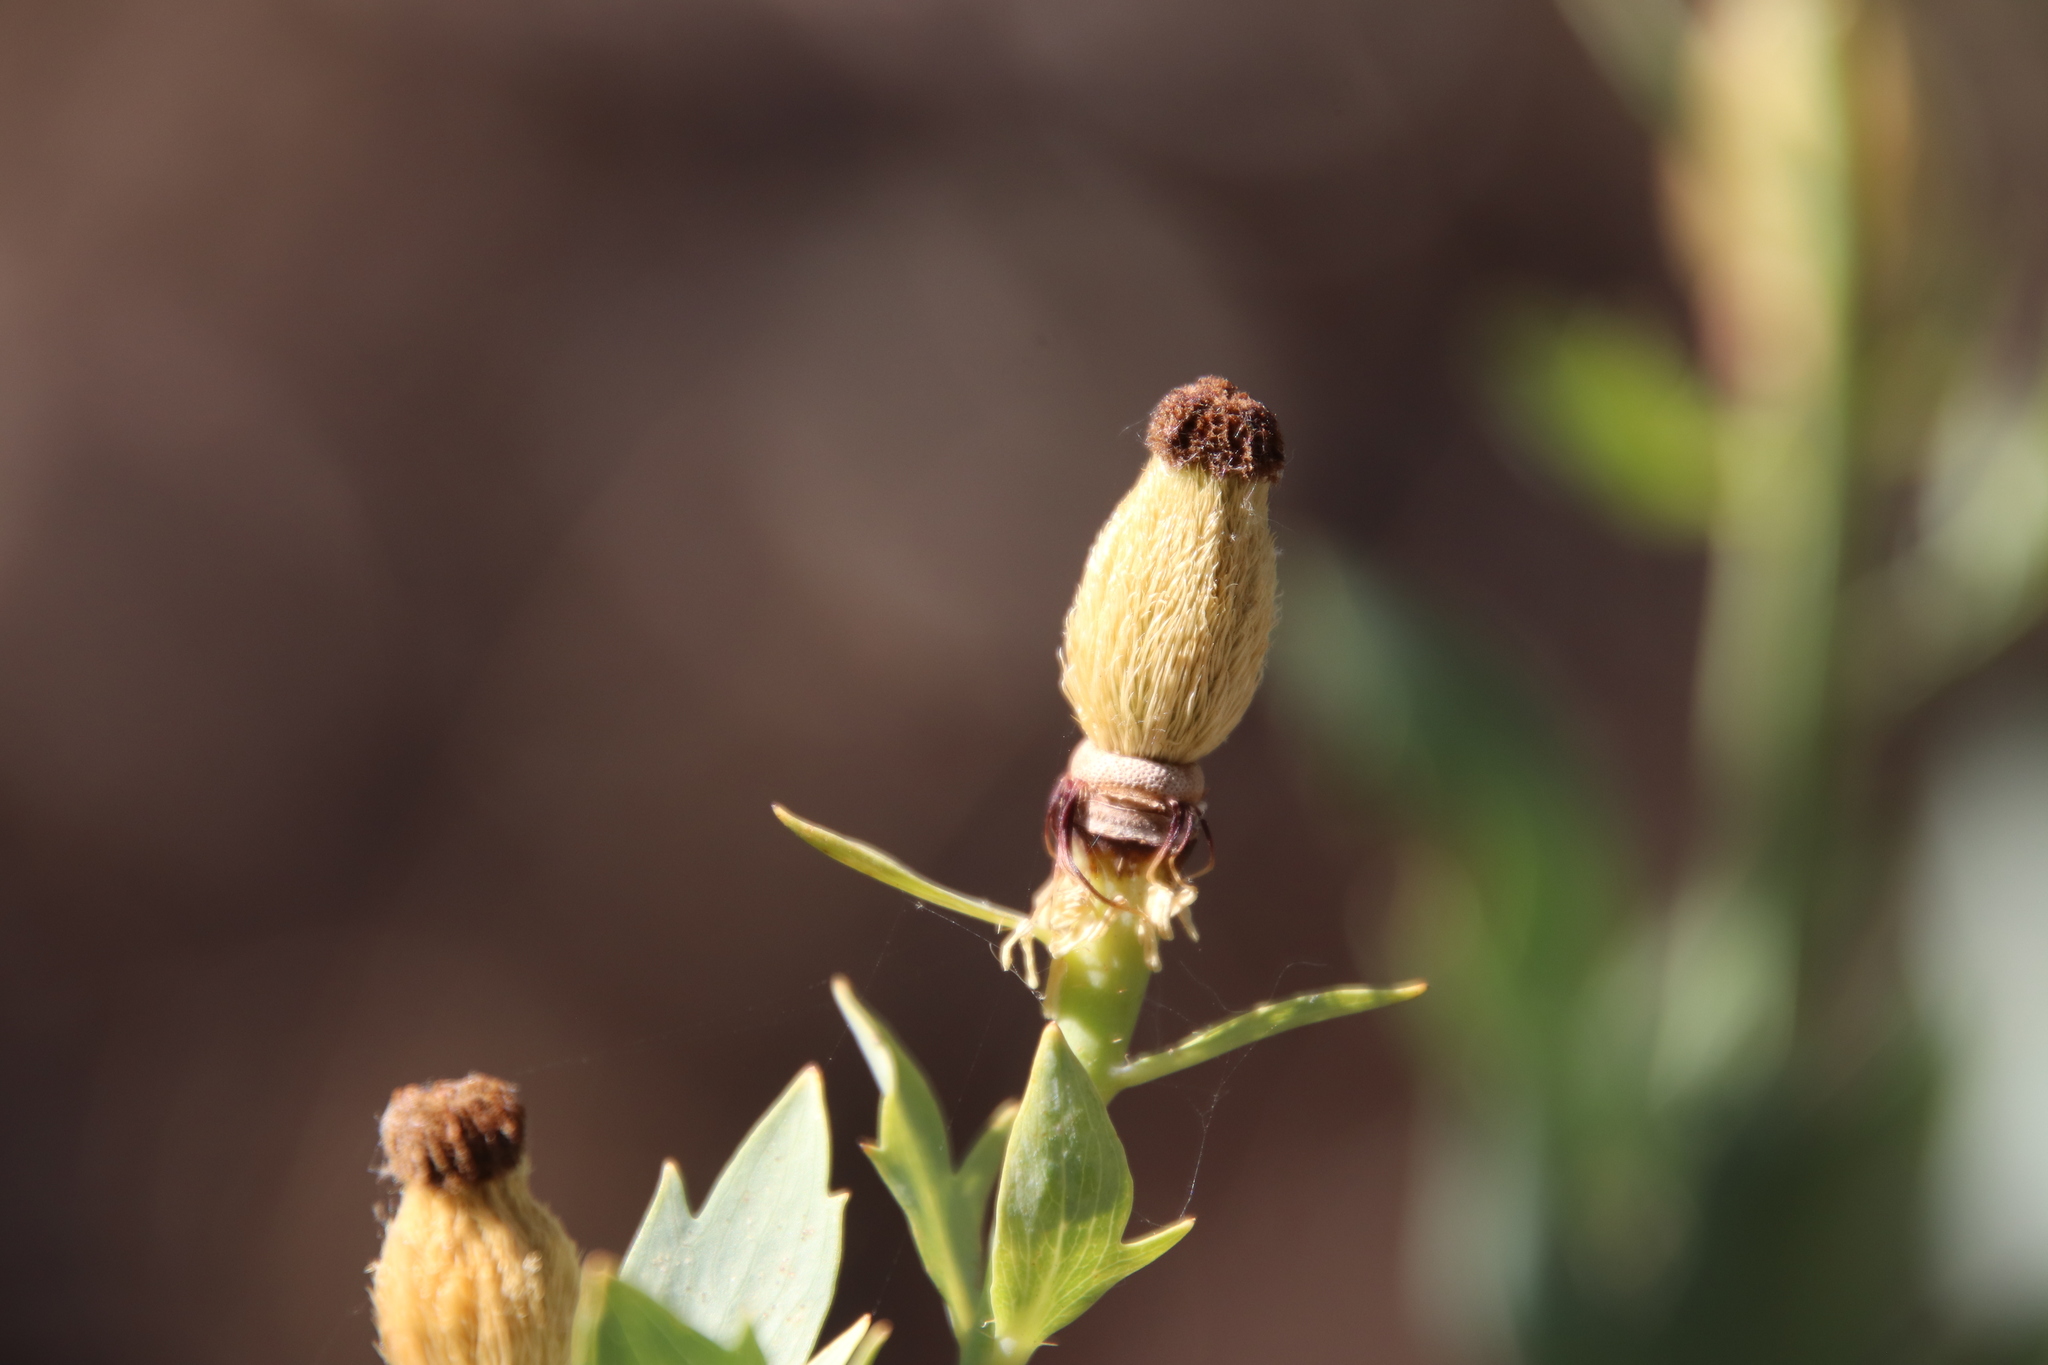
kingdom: Plantae
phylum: Tracheophyta
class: Magnoliopsida
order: Ranunculales
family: Papaveraceae
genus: Romneya
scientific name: Romneya trichocalyx
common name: Hairy matilija-poppy
